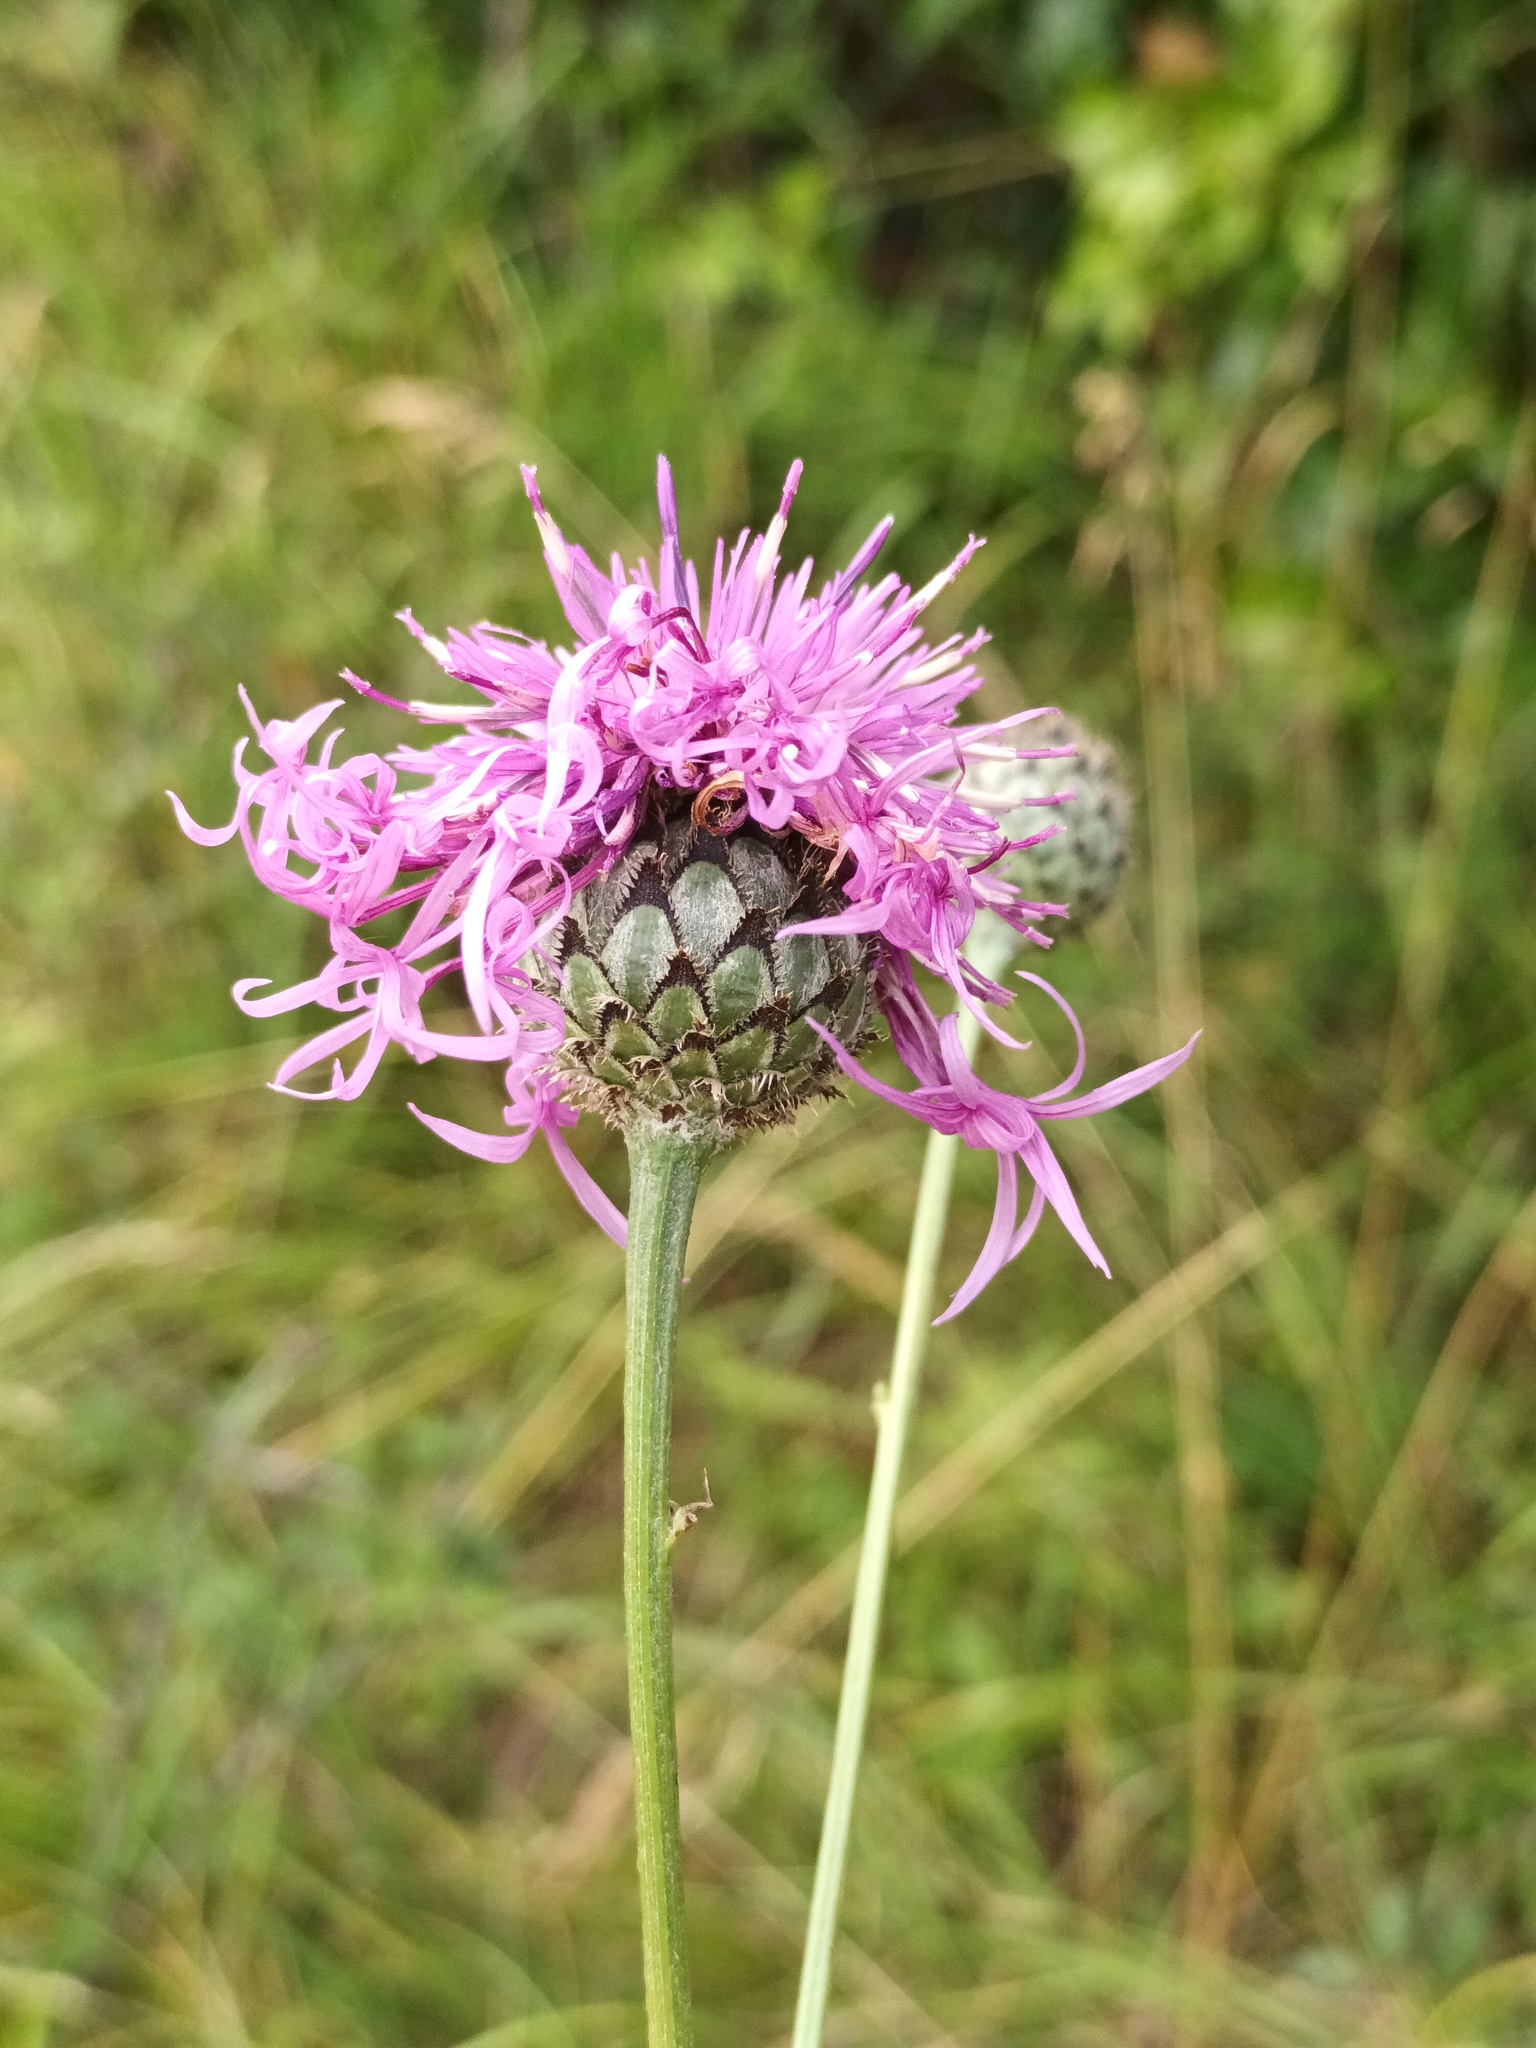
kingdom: Plantae
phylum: Tracheophyta
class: Magnoliopsida
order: Asterales
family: Asteraceae
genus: Centaurea
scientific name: Centaurea scabiosa
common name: Greater knapweed
